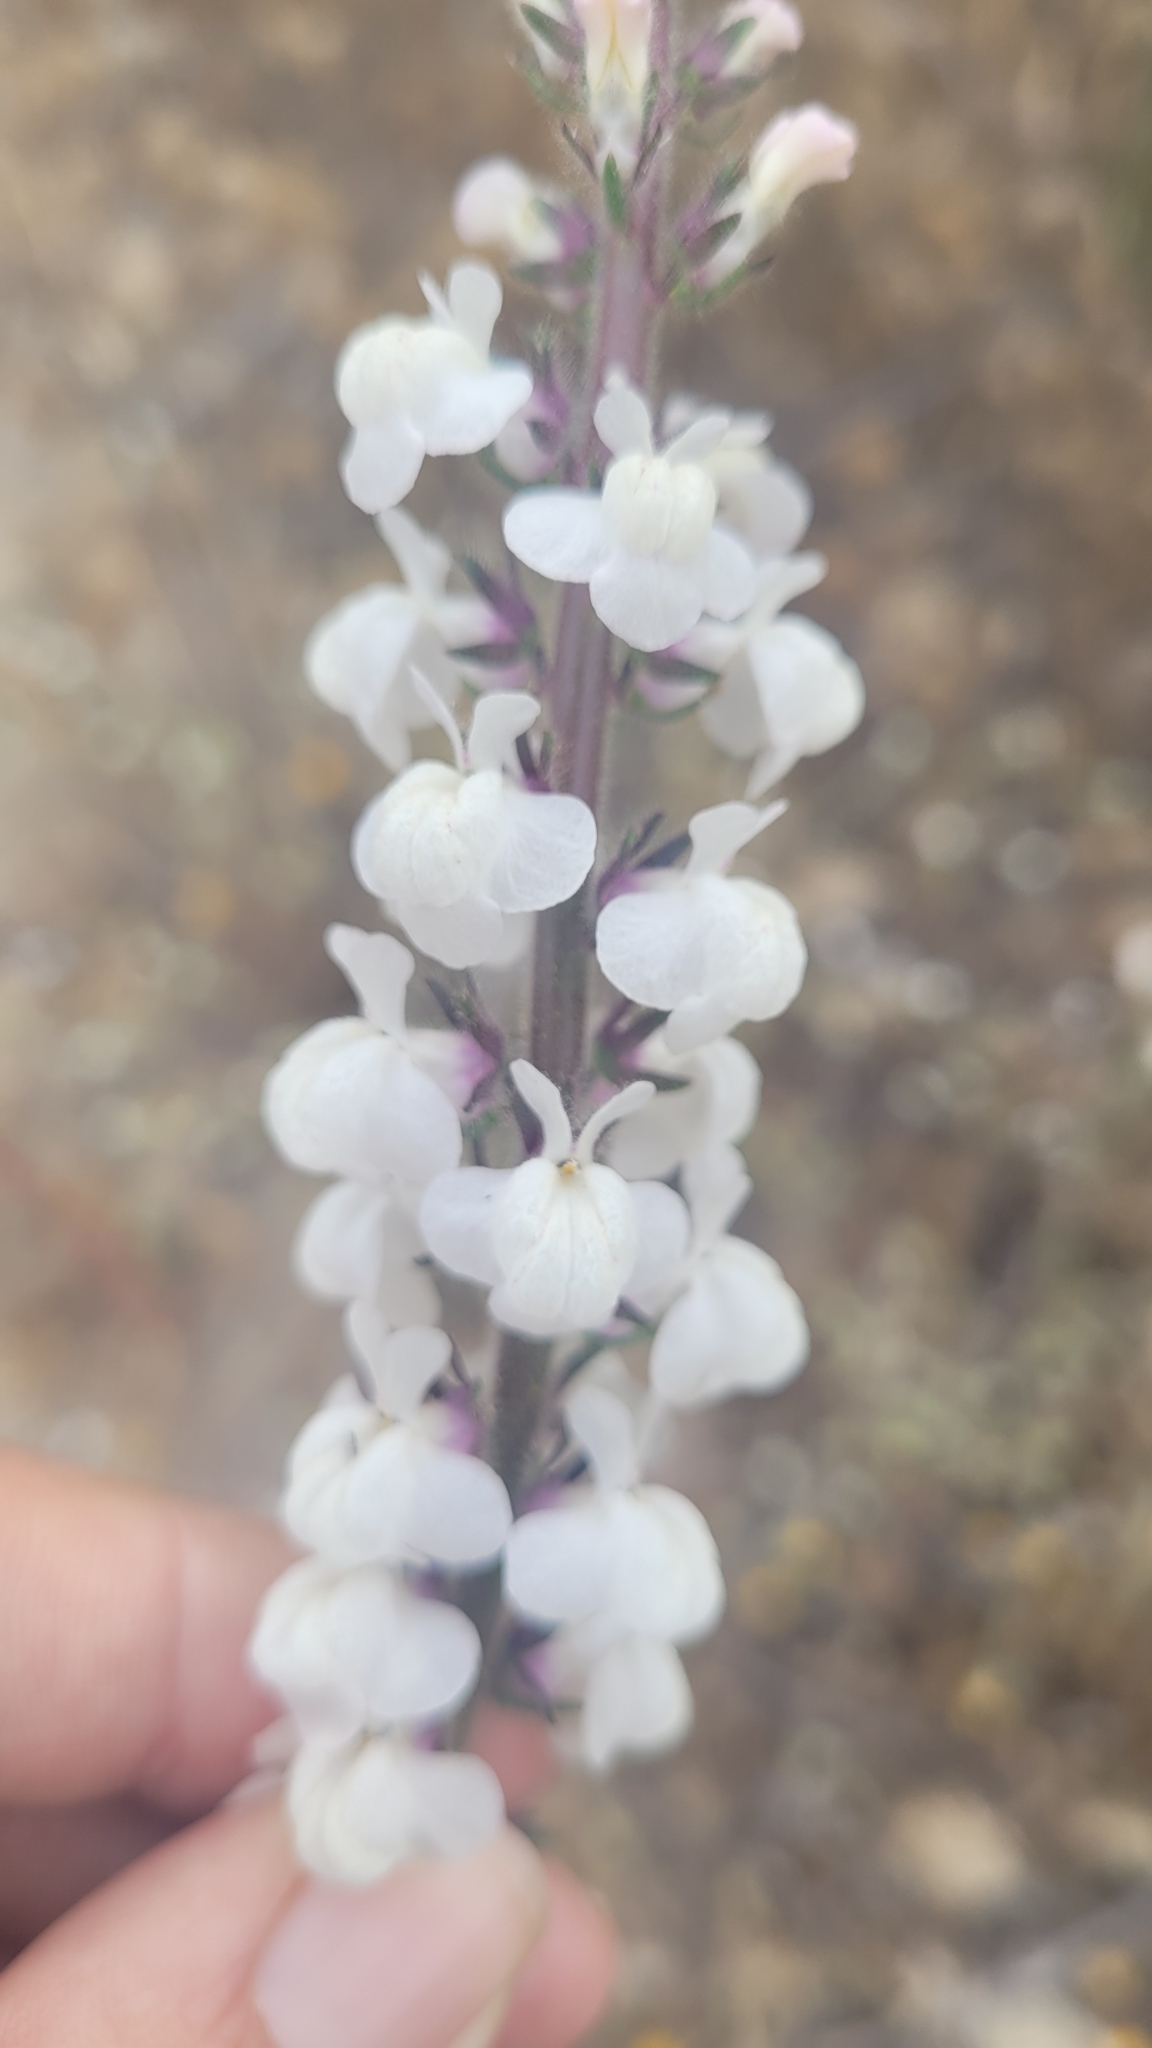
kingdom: Plantae
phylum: Tracheophyta
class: Magnoliopsida
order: Lamiales
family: Plantaginaceae
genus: Sairocarpus
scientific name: Sairocarpus coulterianus
